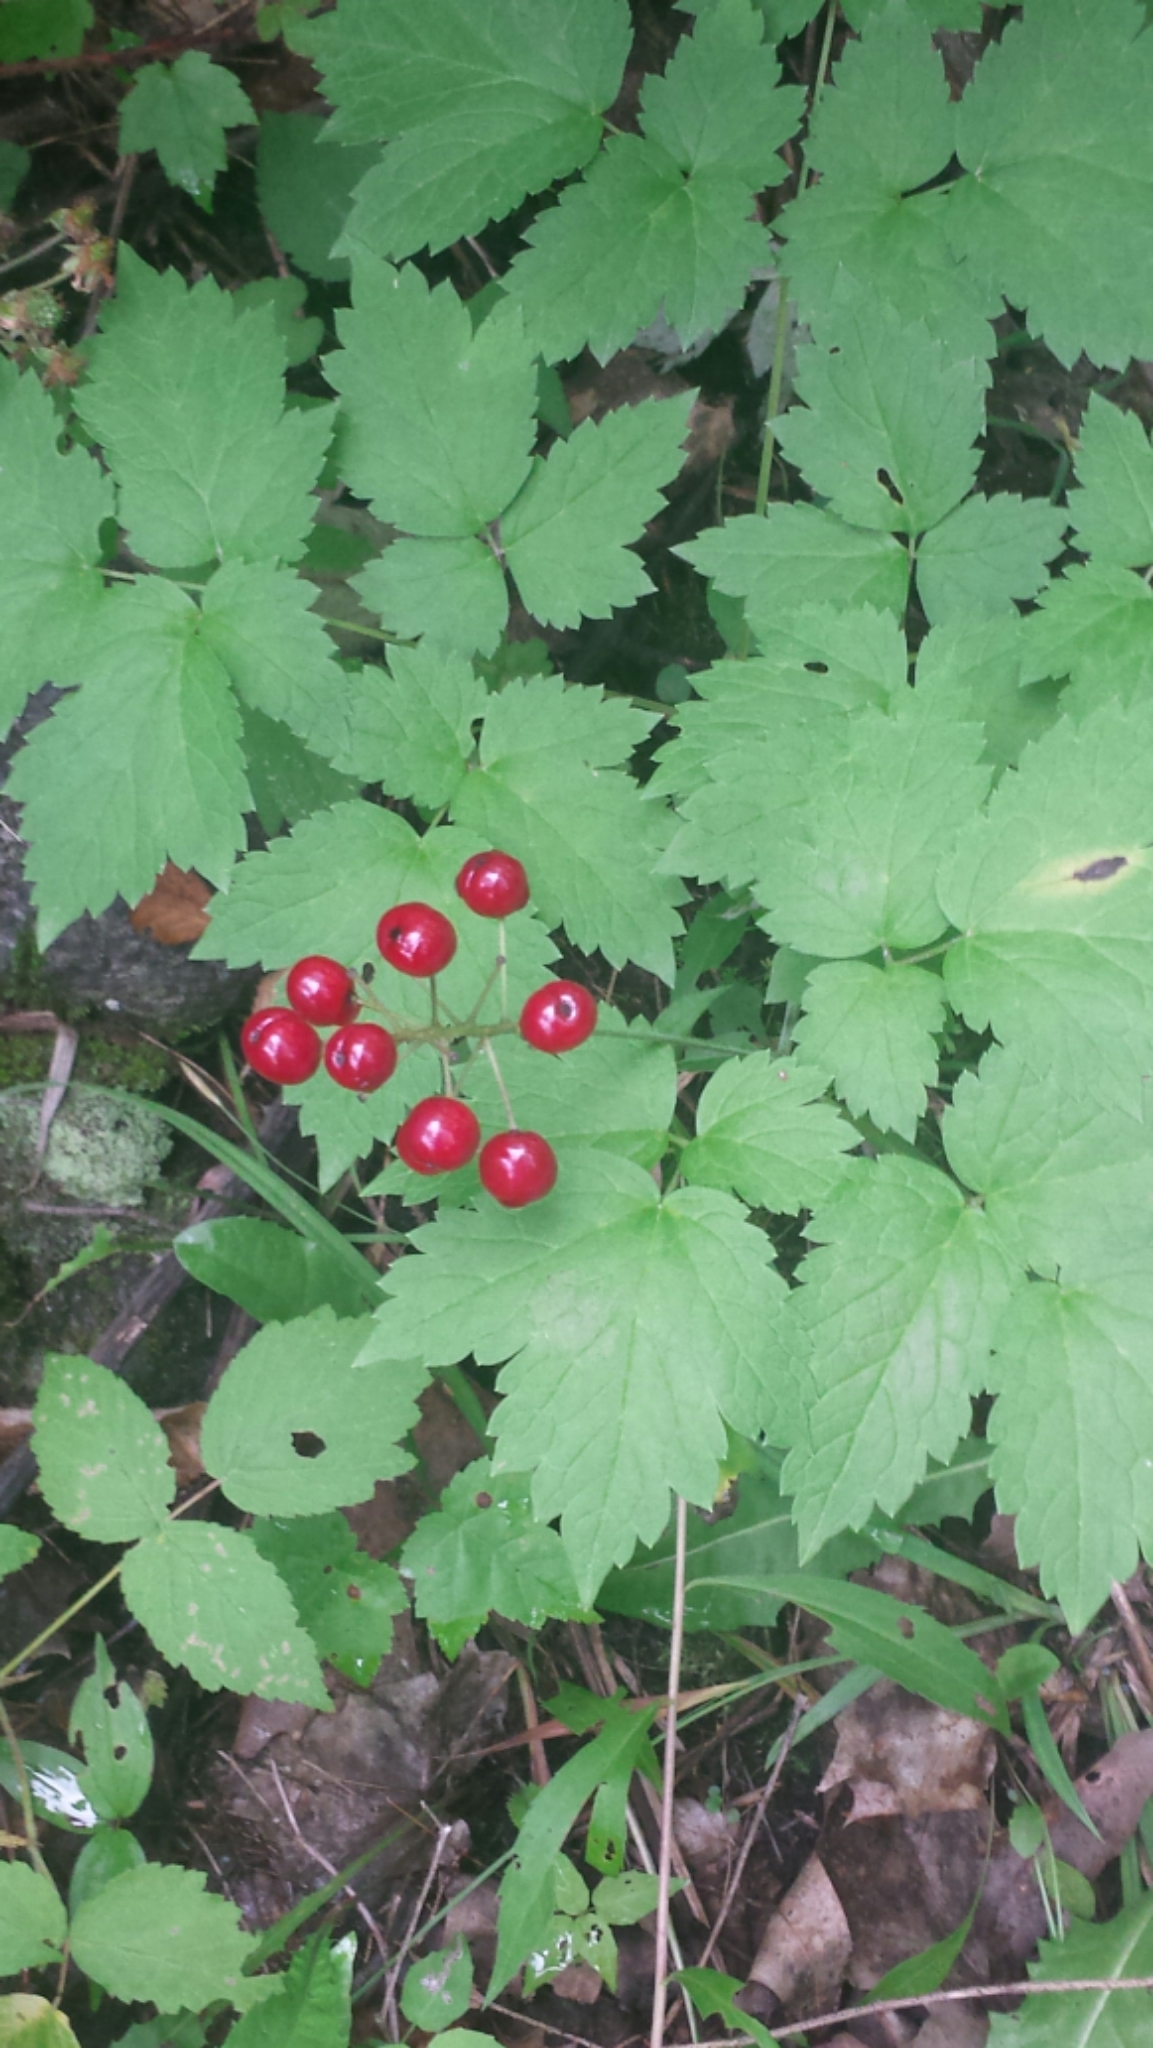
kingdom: Plantae
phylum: Tracheophyta
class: Magnoliopsida
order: Ranunculales
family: Ranunculaceae
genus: Actaea
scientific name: Actaea rubra
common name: Red baneberry
